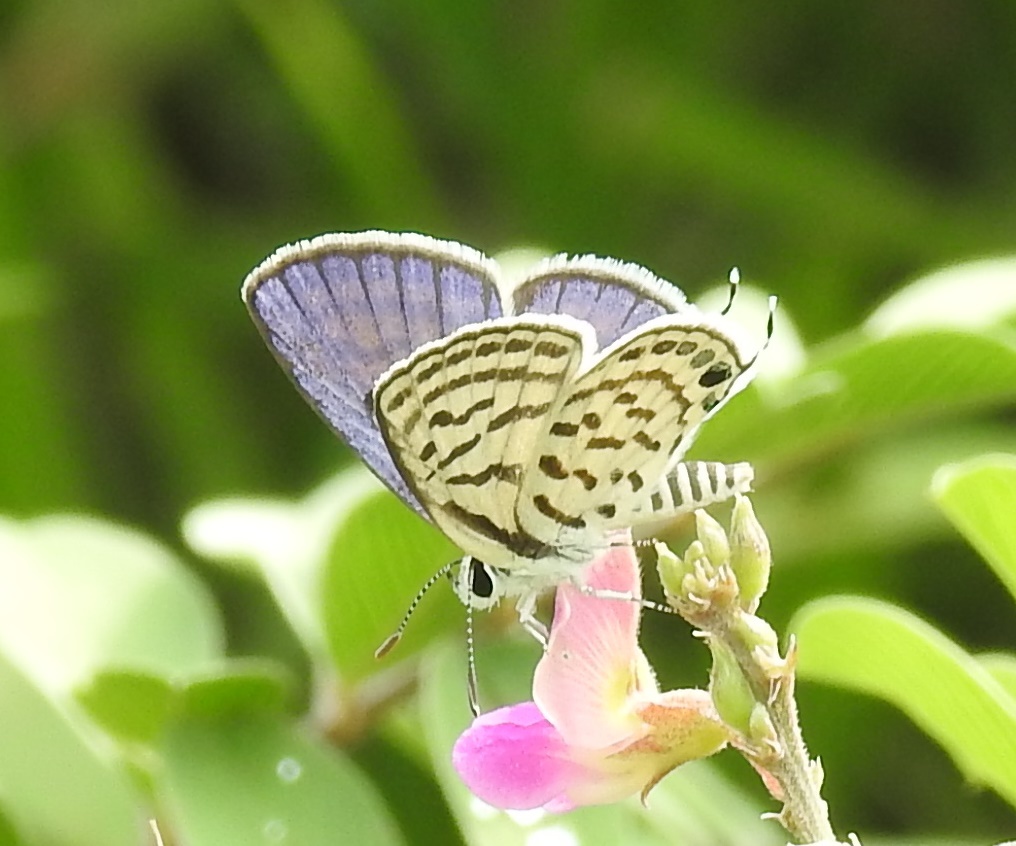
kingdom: Animalia
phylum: Arthropoda
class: Insecta
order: Lepidoptera
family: Lycaenidae
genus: Tarucus
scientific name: Tarucus nara
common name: Striped pierrot
